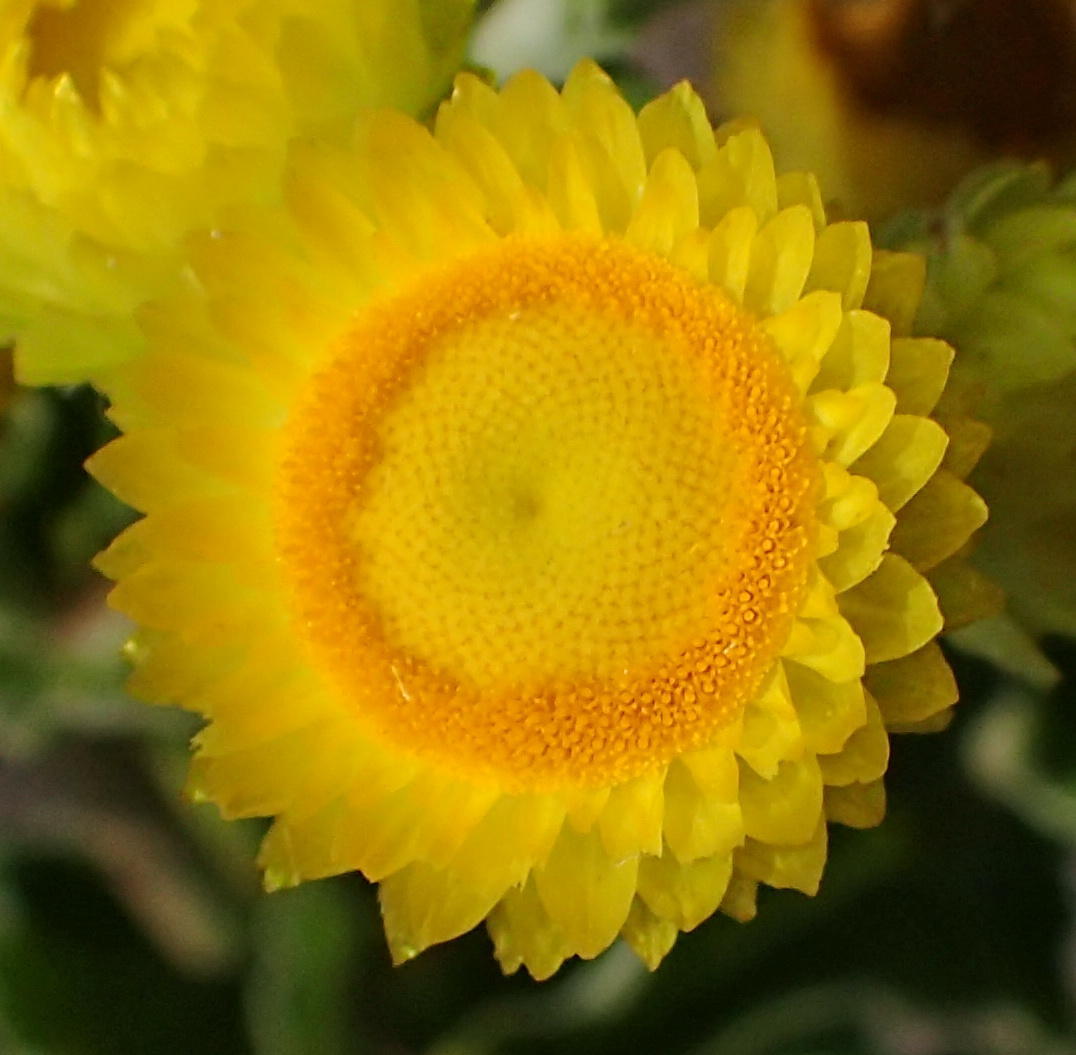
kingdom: Plantae
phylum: Tracheophyta
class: Magnoliopsida
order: Asterales
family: Asteraceae
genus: Helichrysum
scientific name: Helichrysum foetidum
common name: Stinking everlasting
